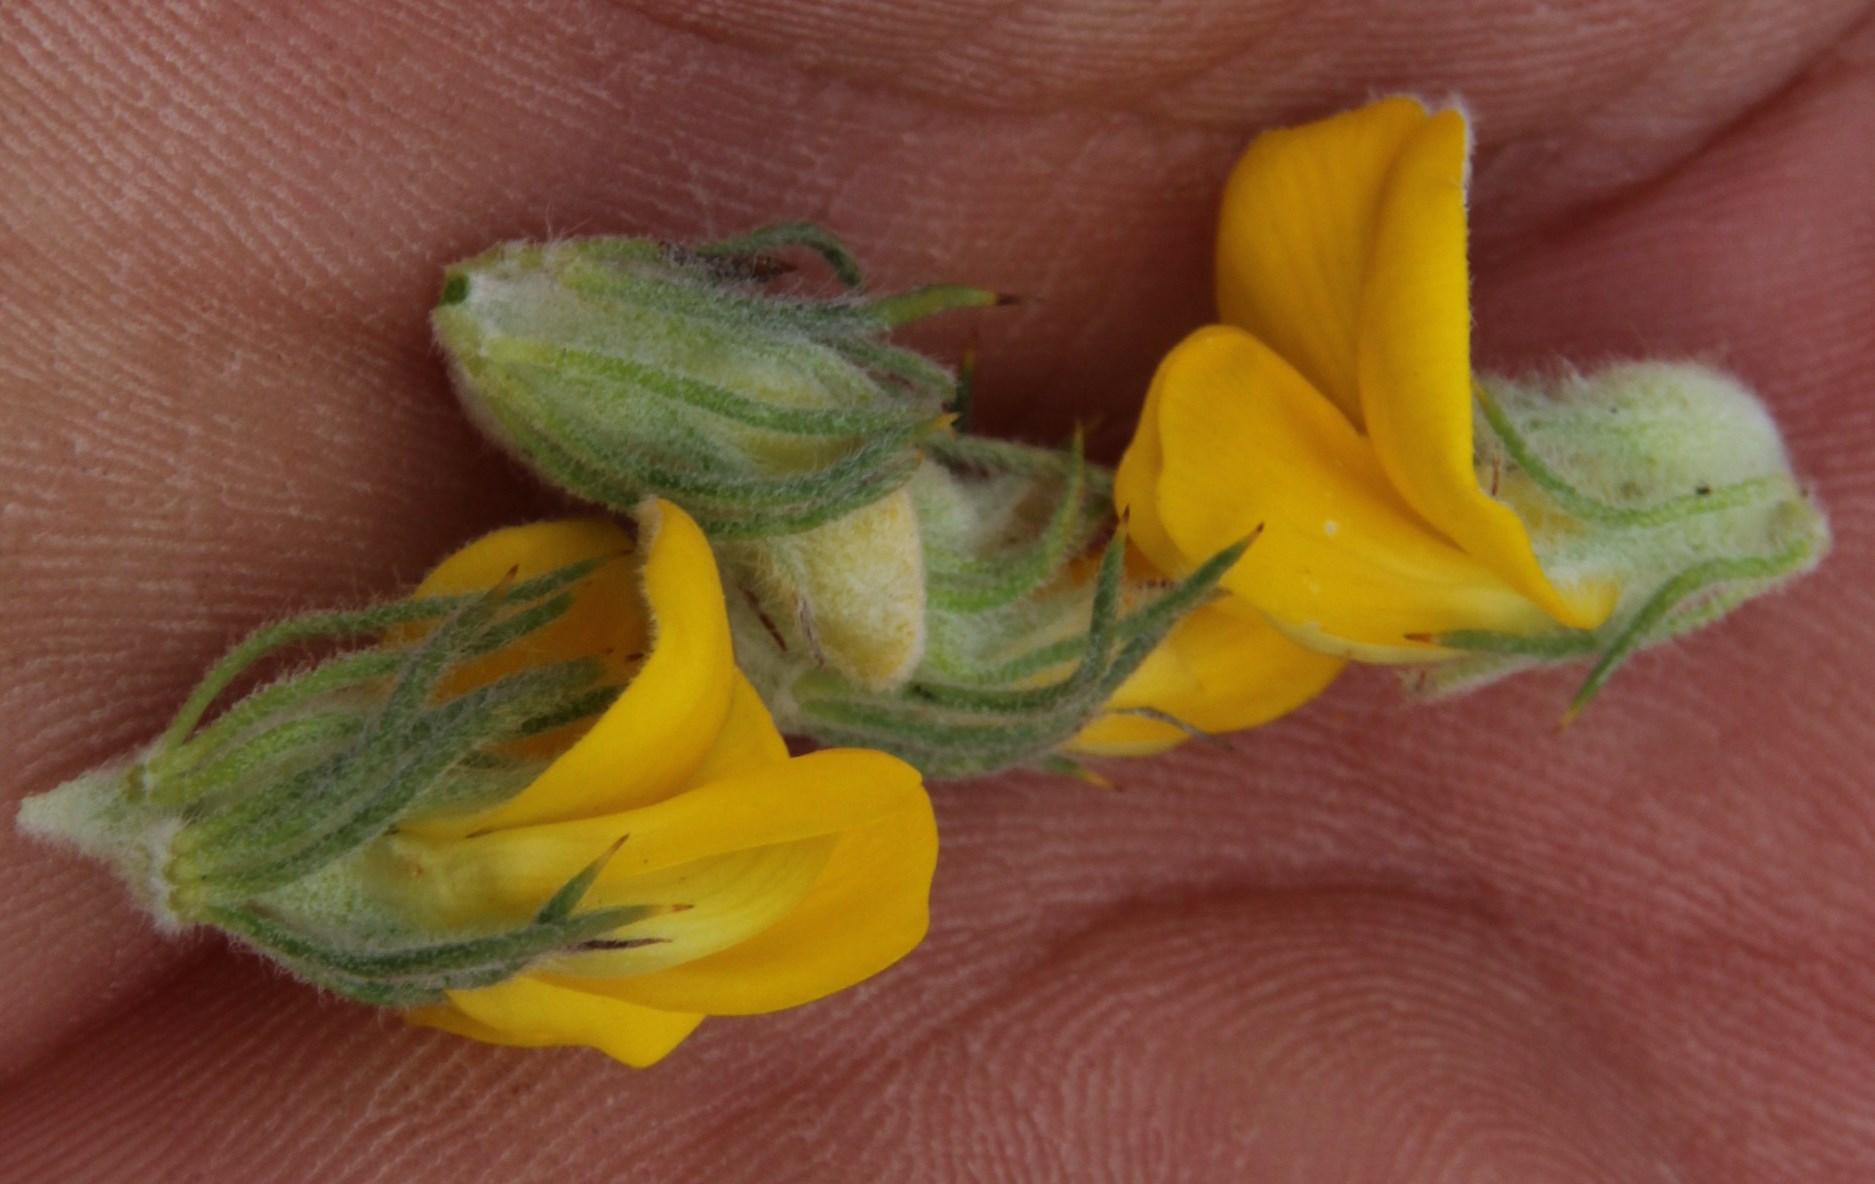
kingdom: Plantae
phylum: Tracheophyta
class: Magnoliopsida
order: Fabales
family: Fabaceae
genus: Aspalathus
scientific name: Aspalathus shawii
